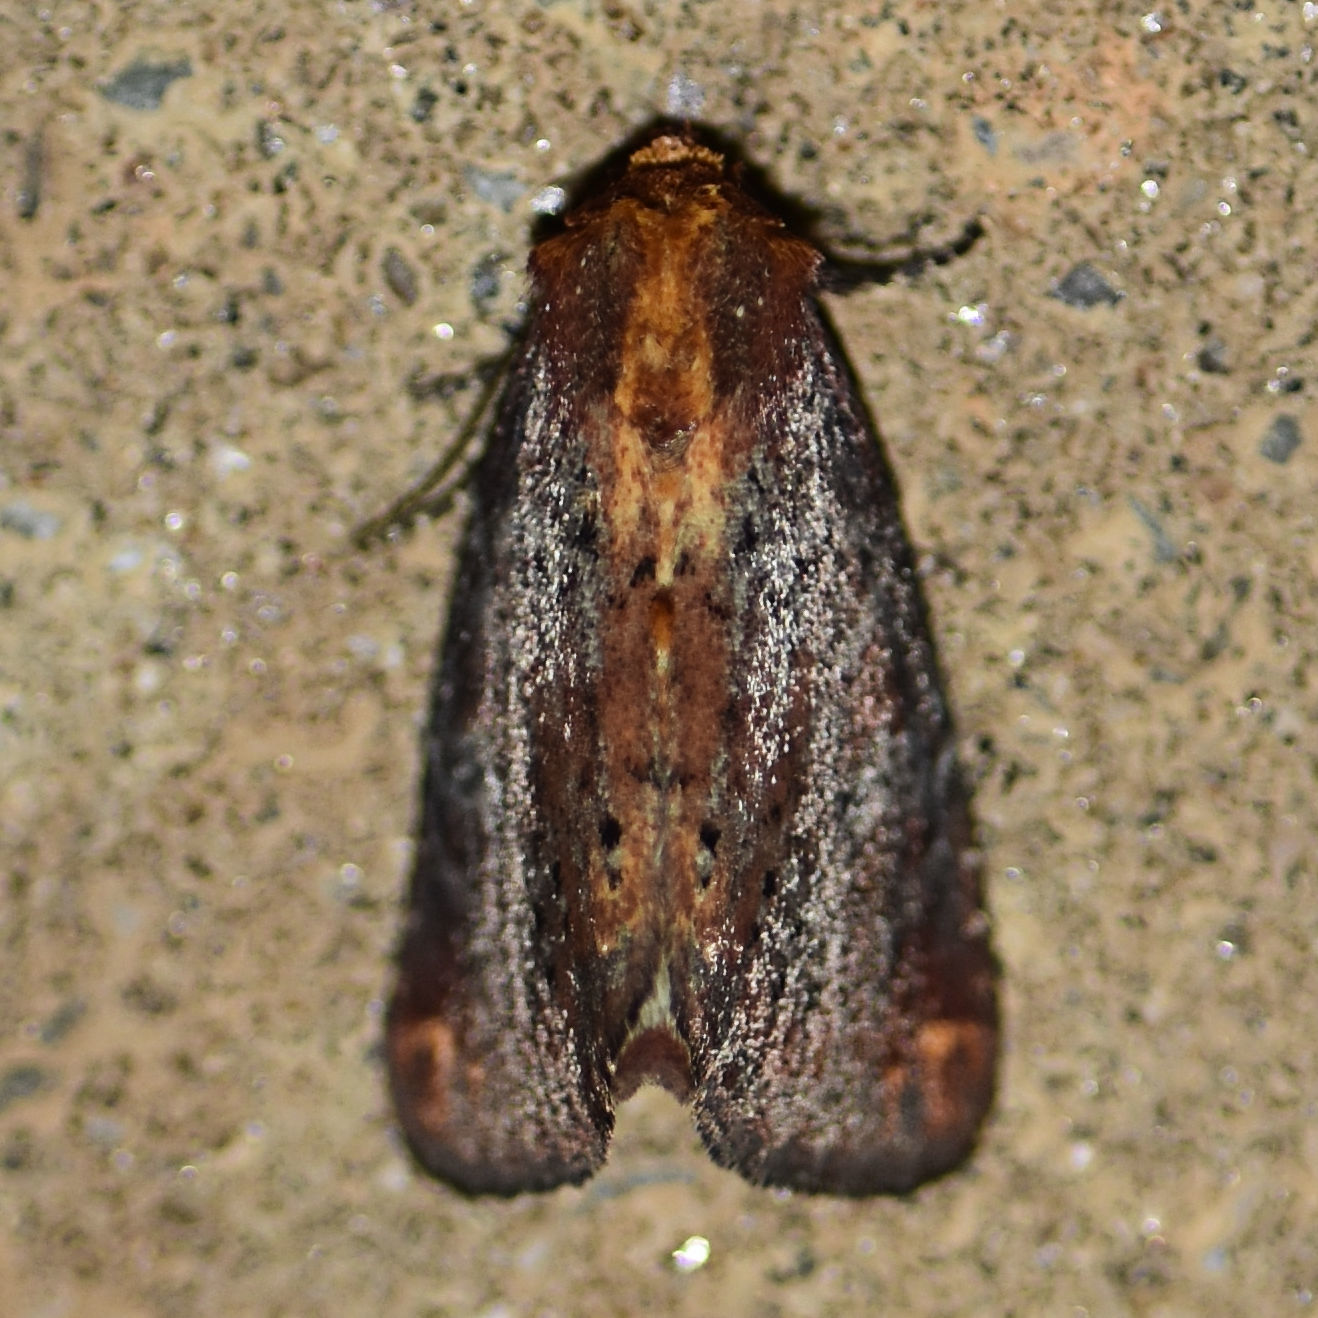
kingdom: Animalia
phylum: Arthropoda
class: Insecta
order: Lepidoptera
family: Noctuidae
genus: Achatodes
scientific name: Achatodes zeae
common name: Elder shoot borer
